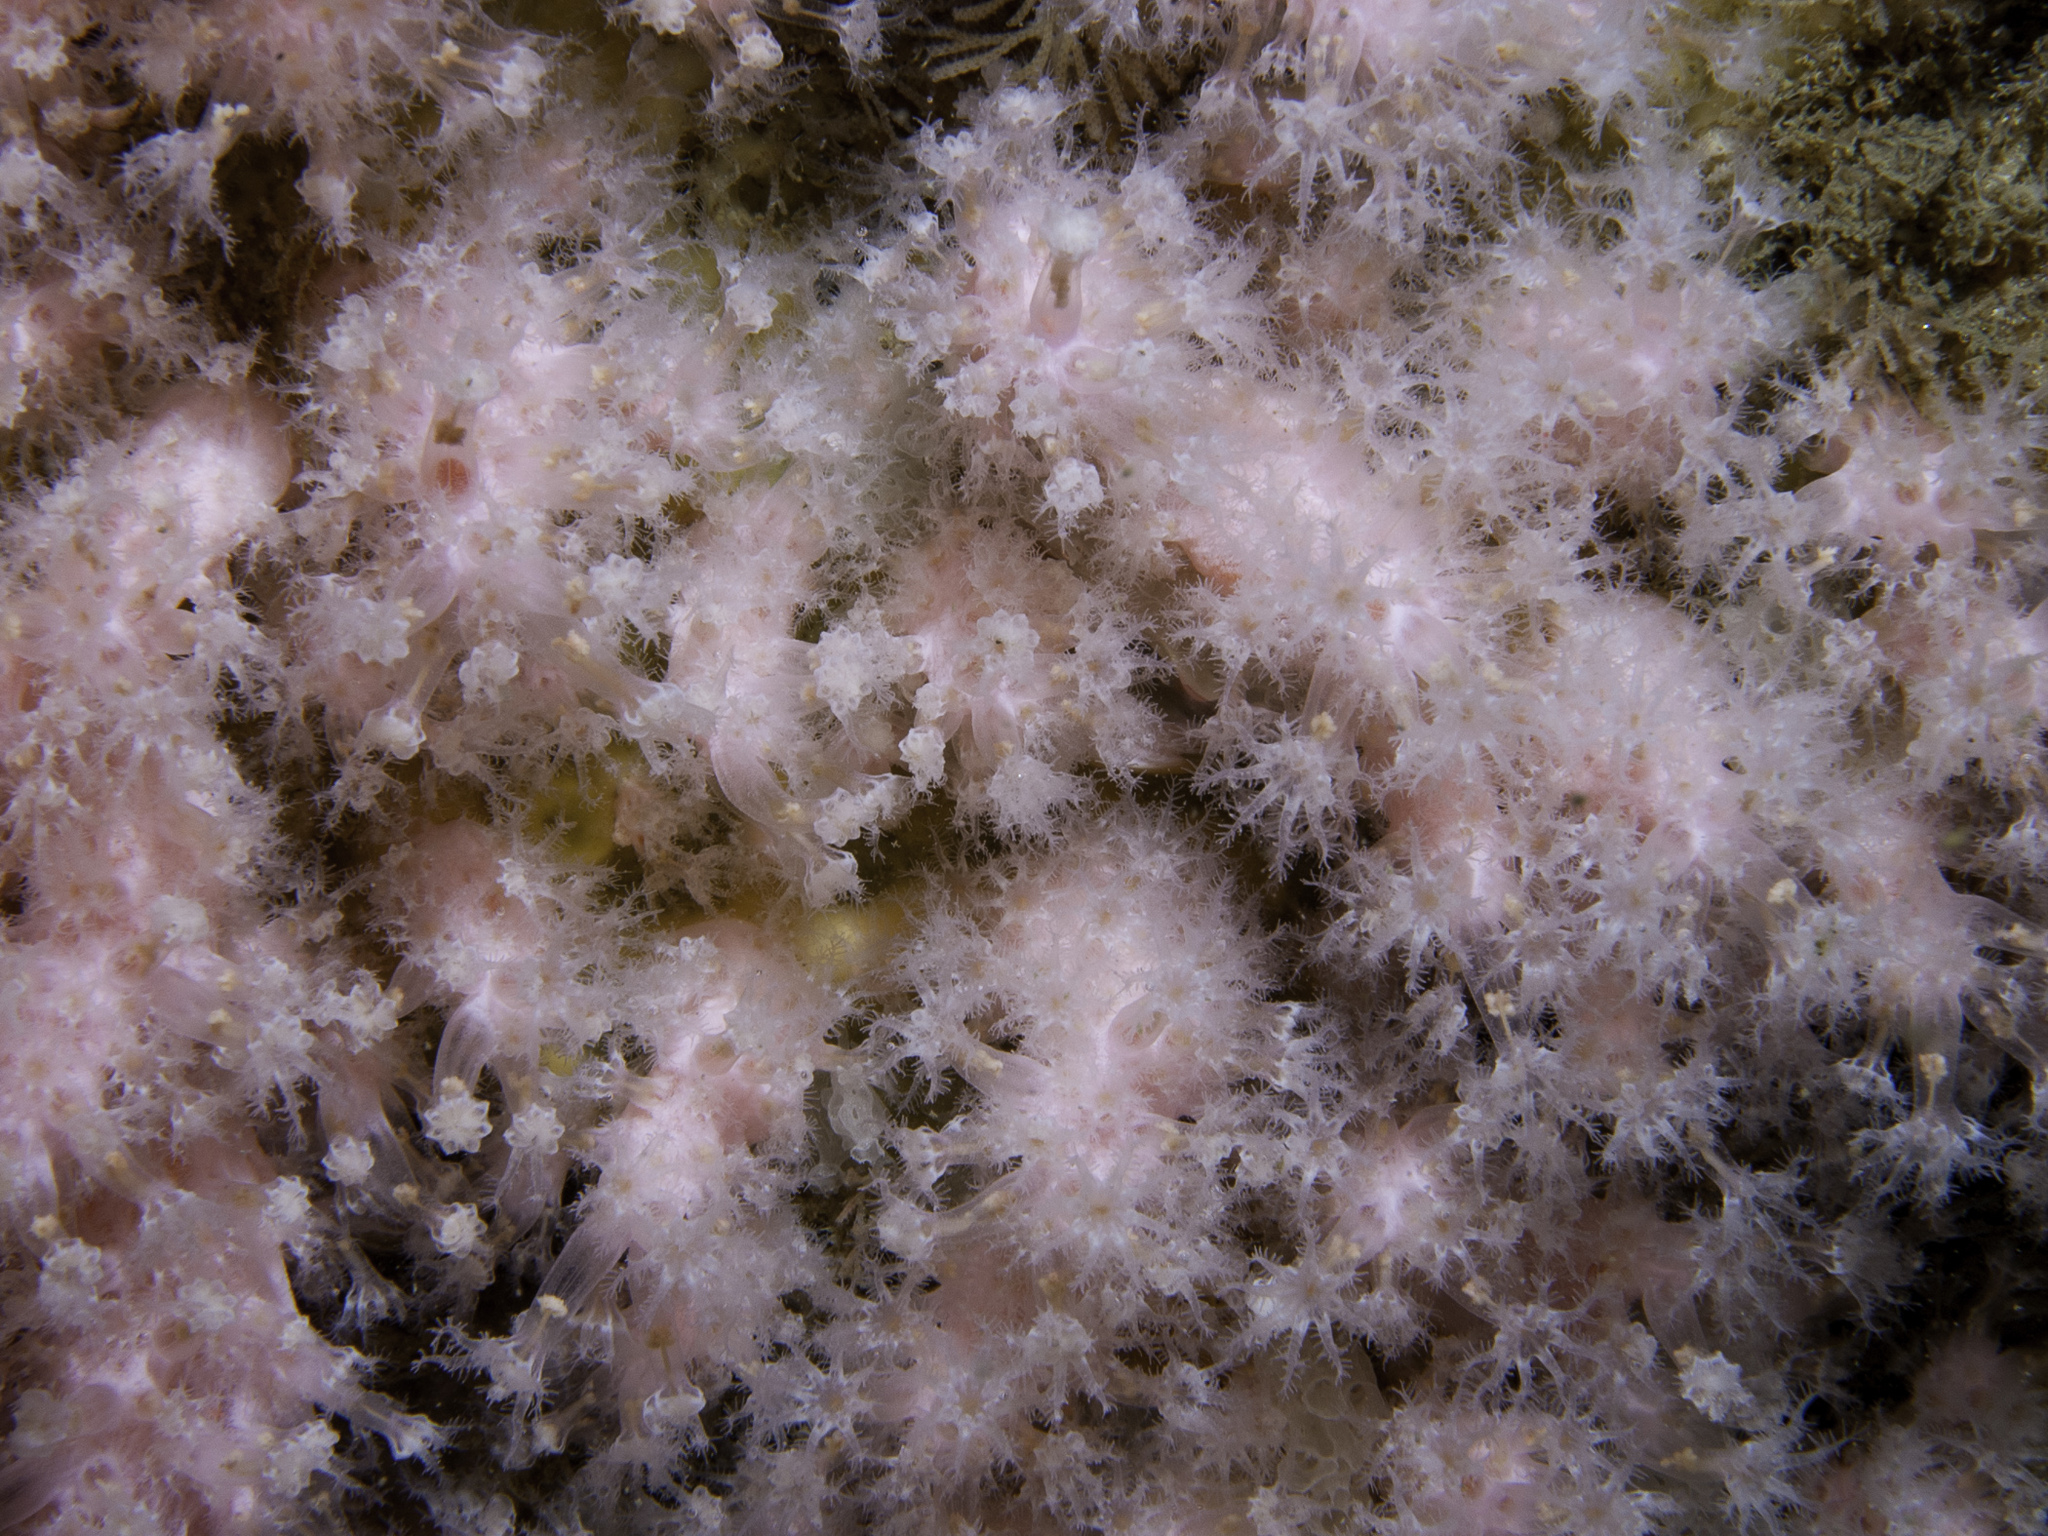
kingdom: Animalia
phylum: Cnidaria
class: Anthozoa
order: Malacalcyonacea
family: Alcyoniidae
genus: Alcyonium
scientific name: Alcyonium hibernicum
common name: Pink sea fingers
